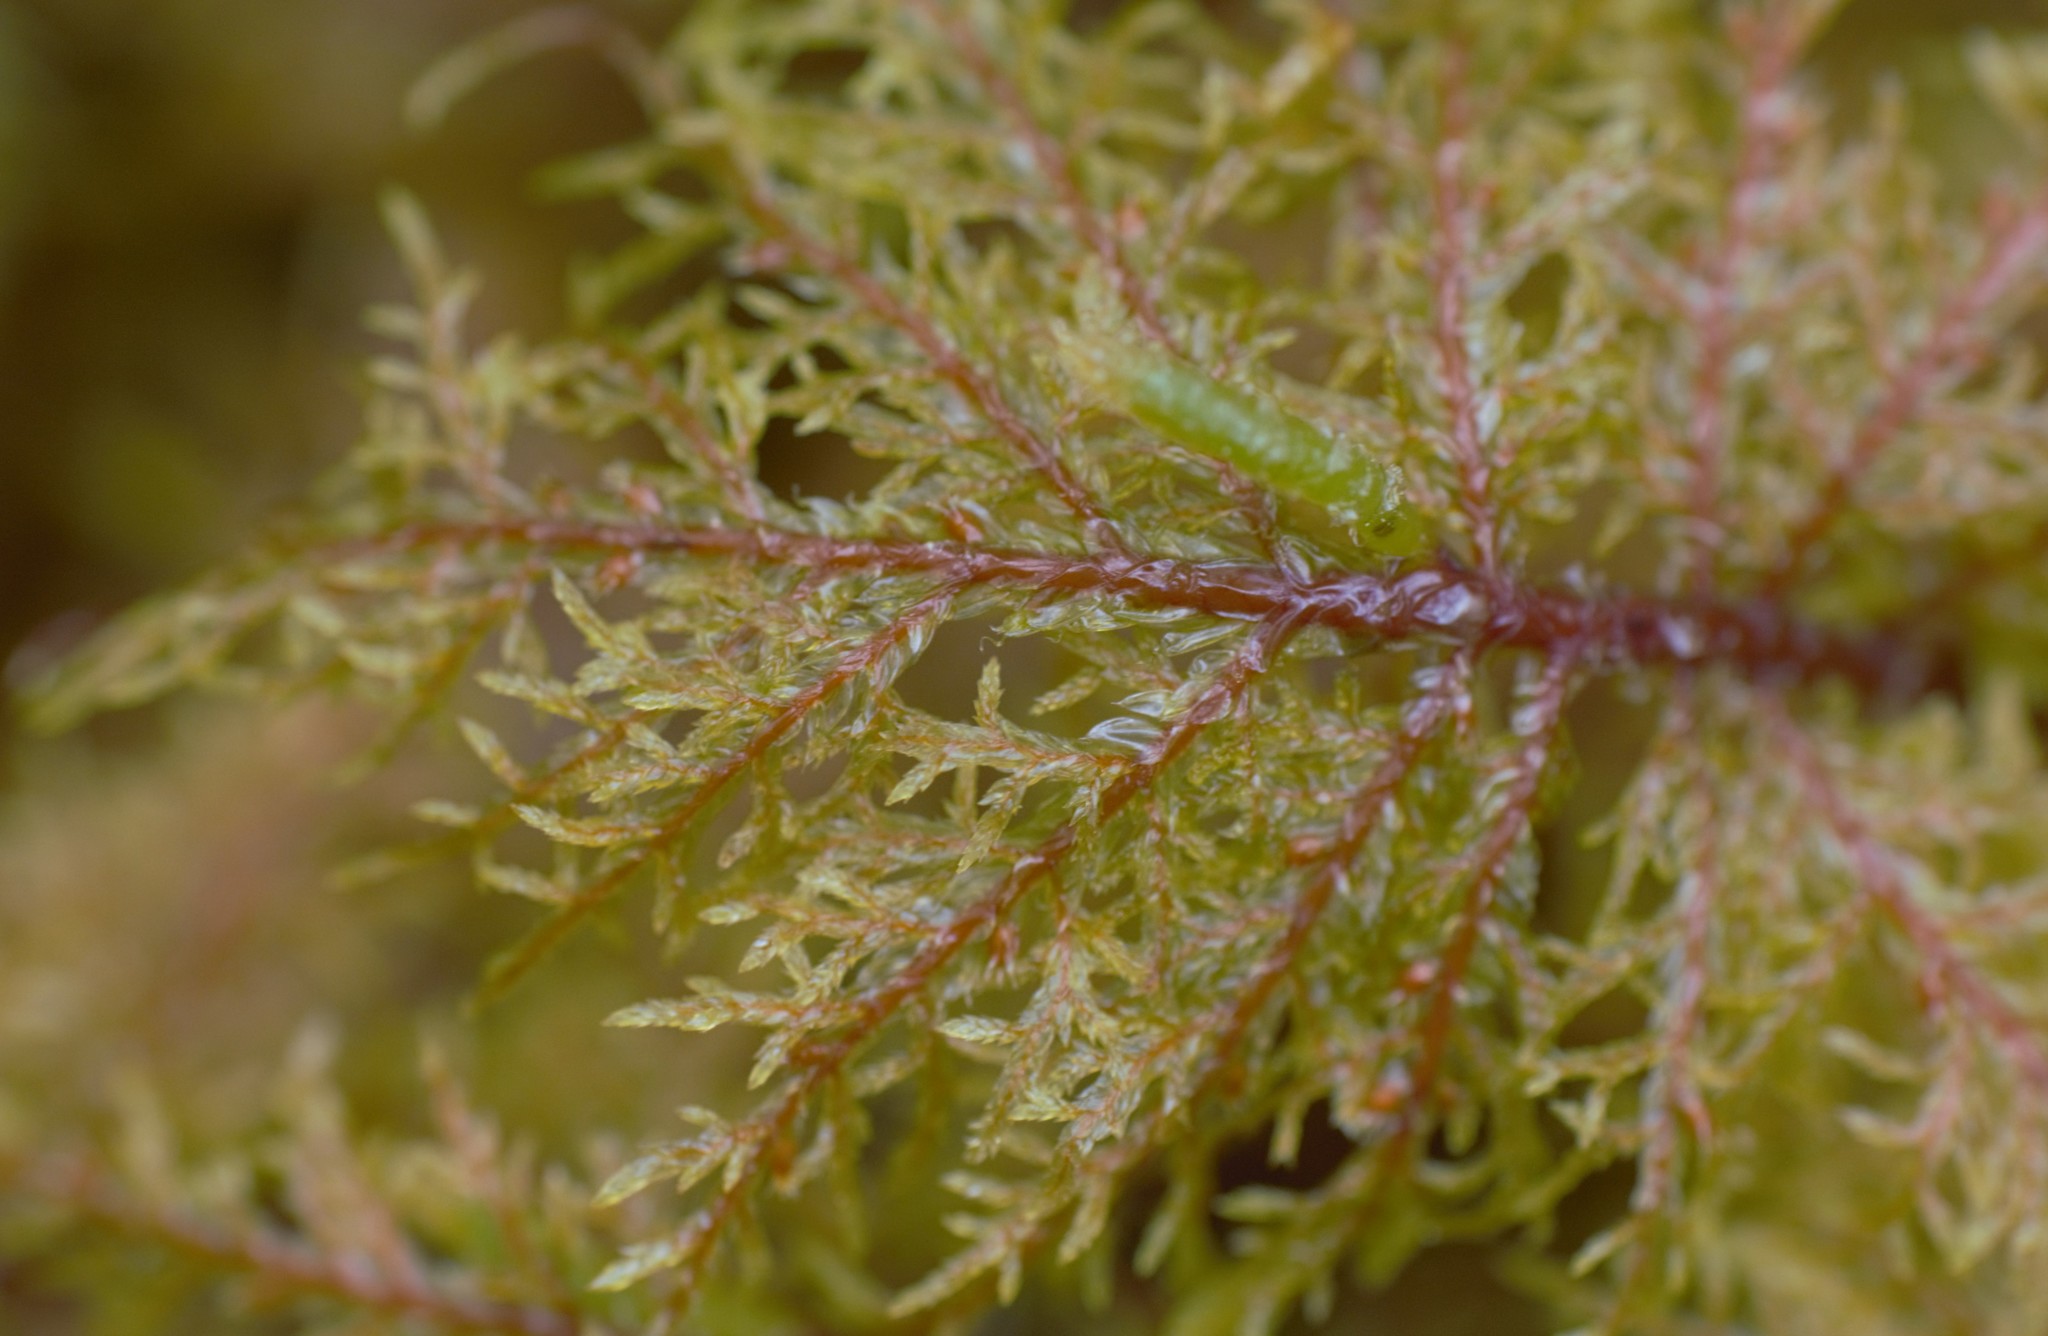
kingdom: Plantae
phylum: Bryophyta
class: Bryopsida
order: Hypnales
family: Hylocomiaceae
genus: Hylocomium
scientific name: Hylocomium splendens
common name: Stairstep moss
